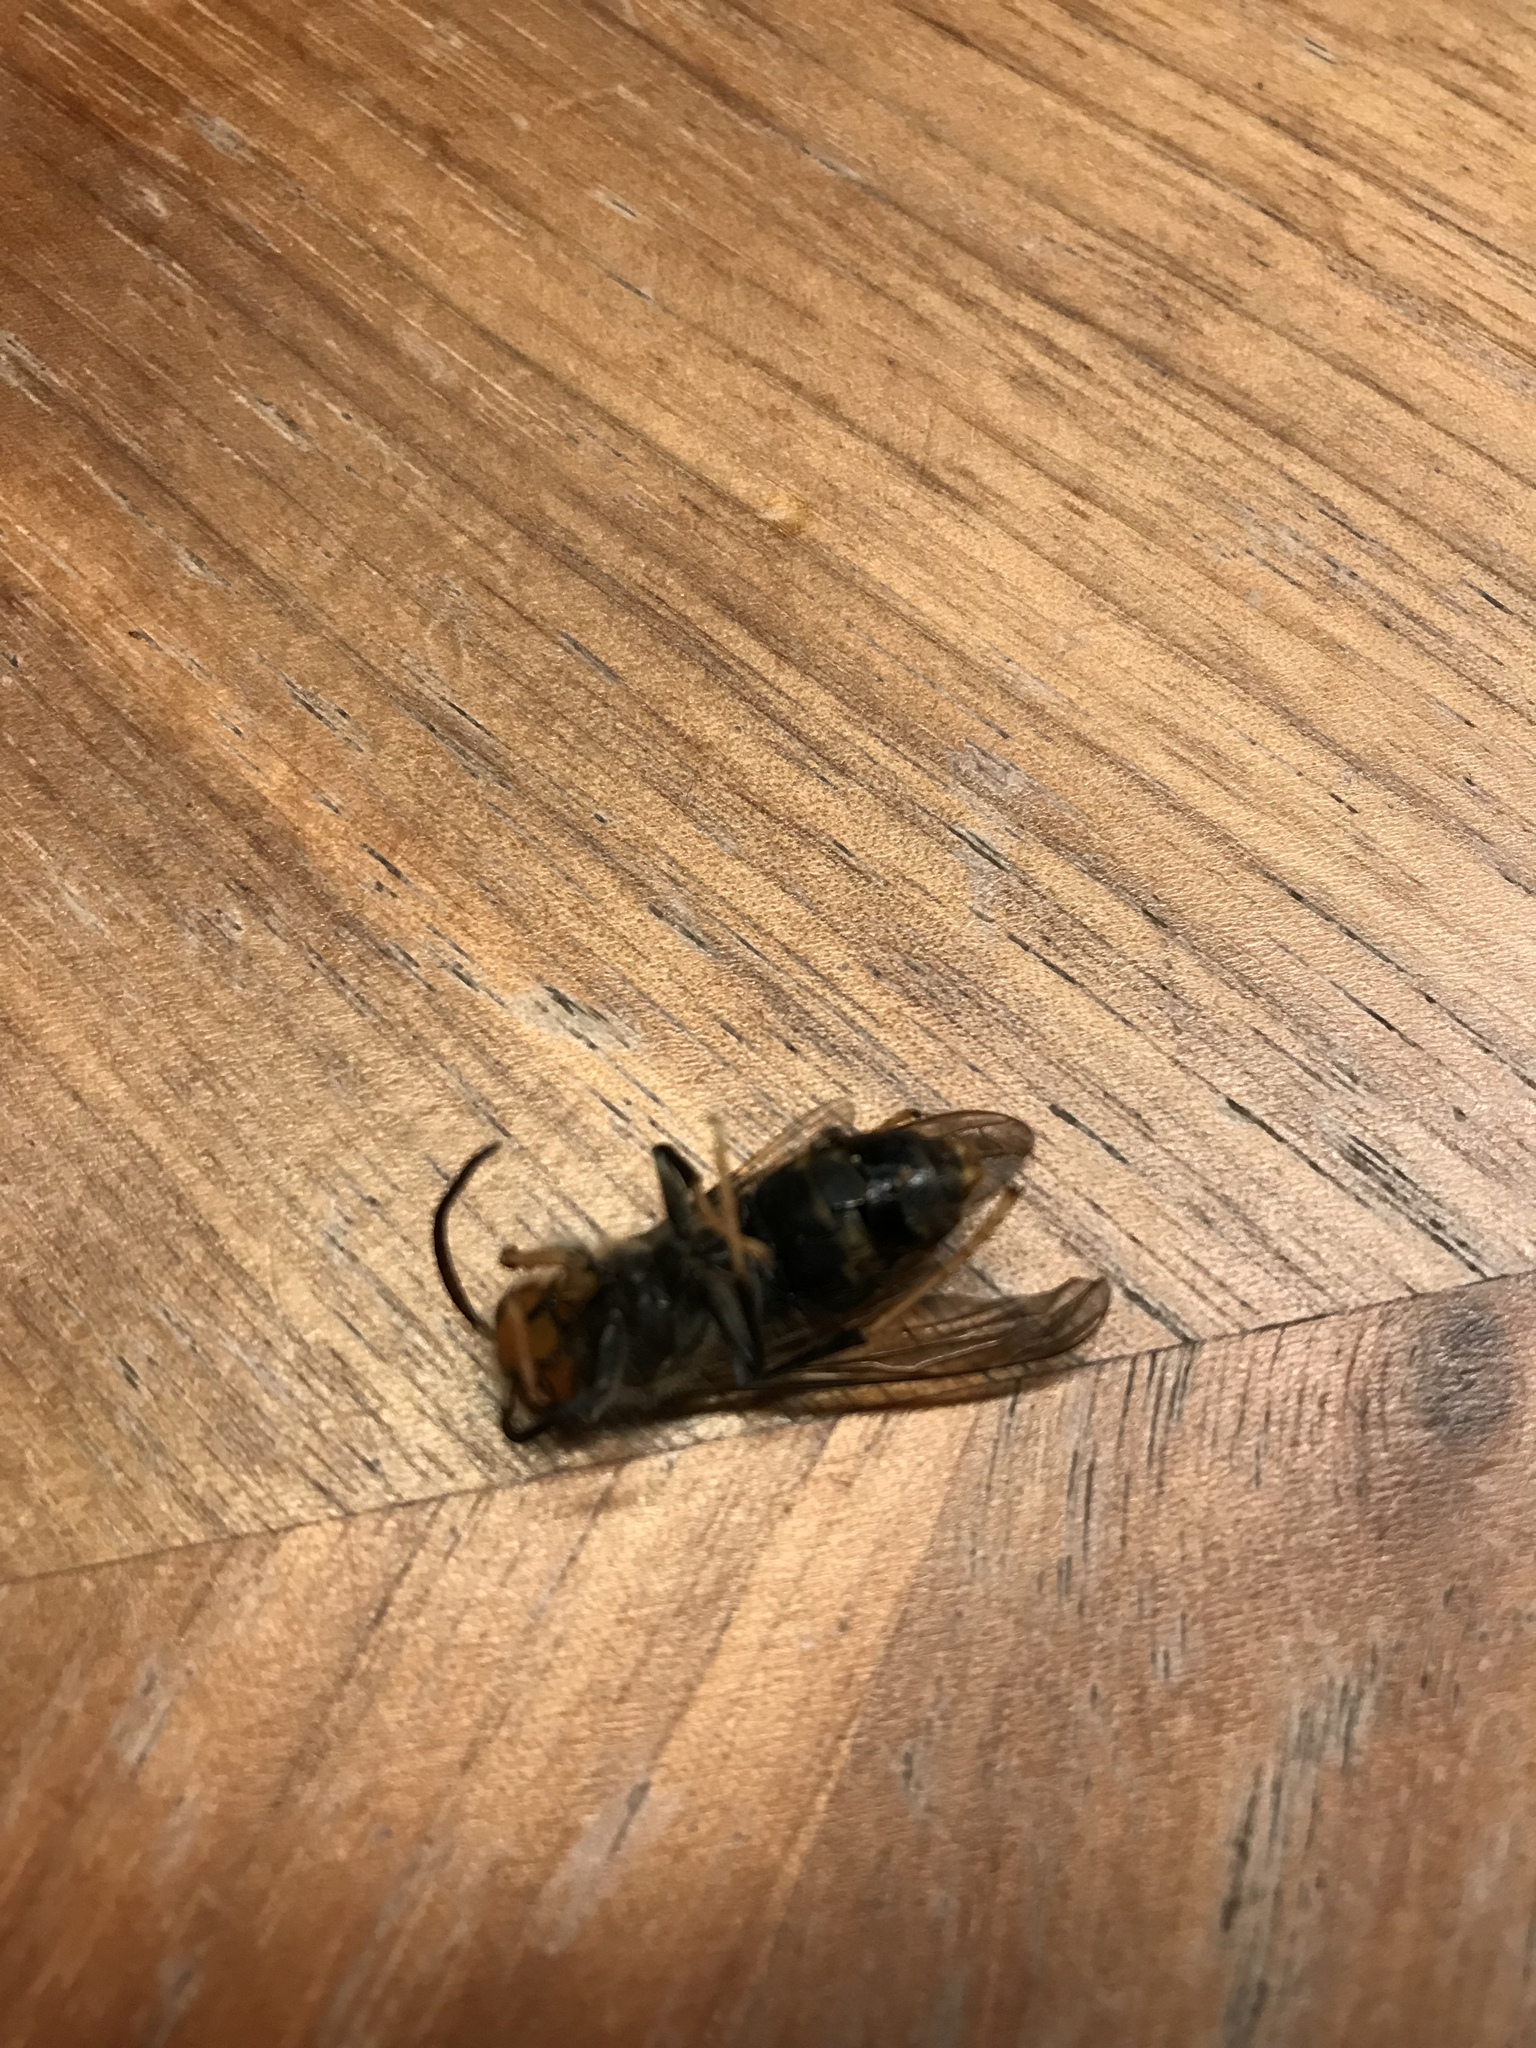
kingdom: Animalia
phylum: Arthropoda
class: Insecta
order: Hymenoptera
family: Vespidae
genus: Vespa
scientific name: Vespa velutina
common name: Asian hornet
